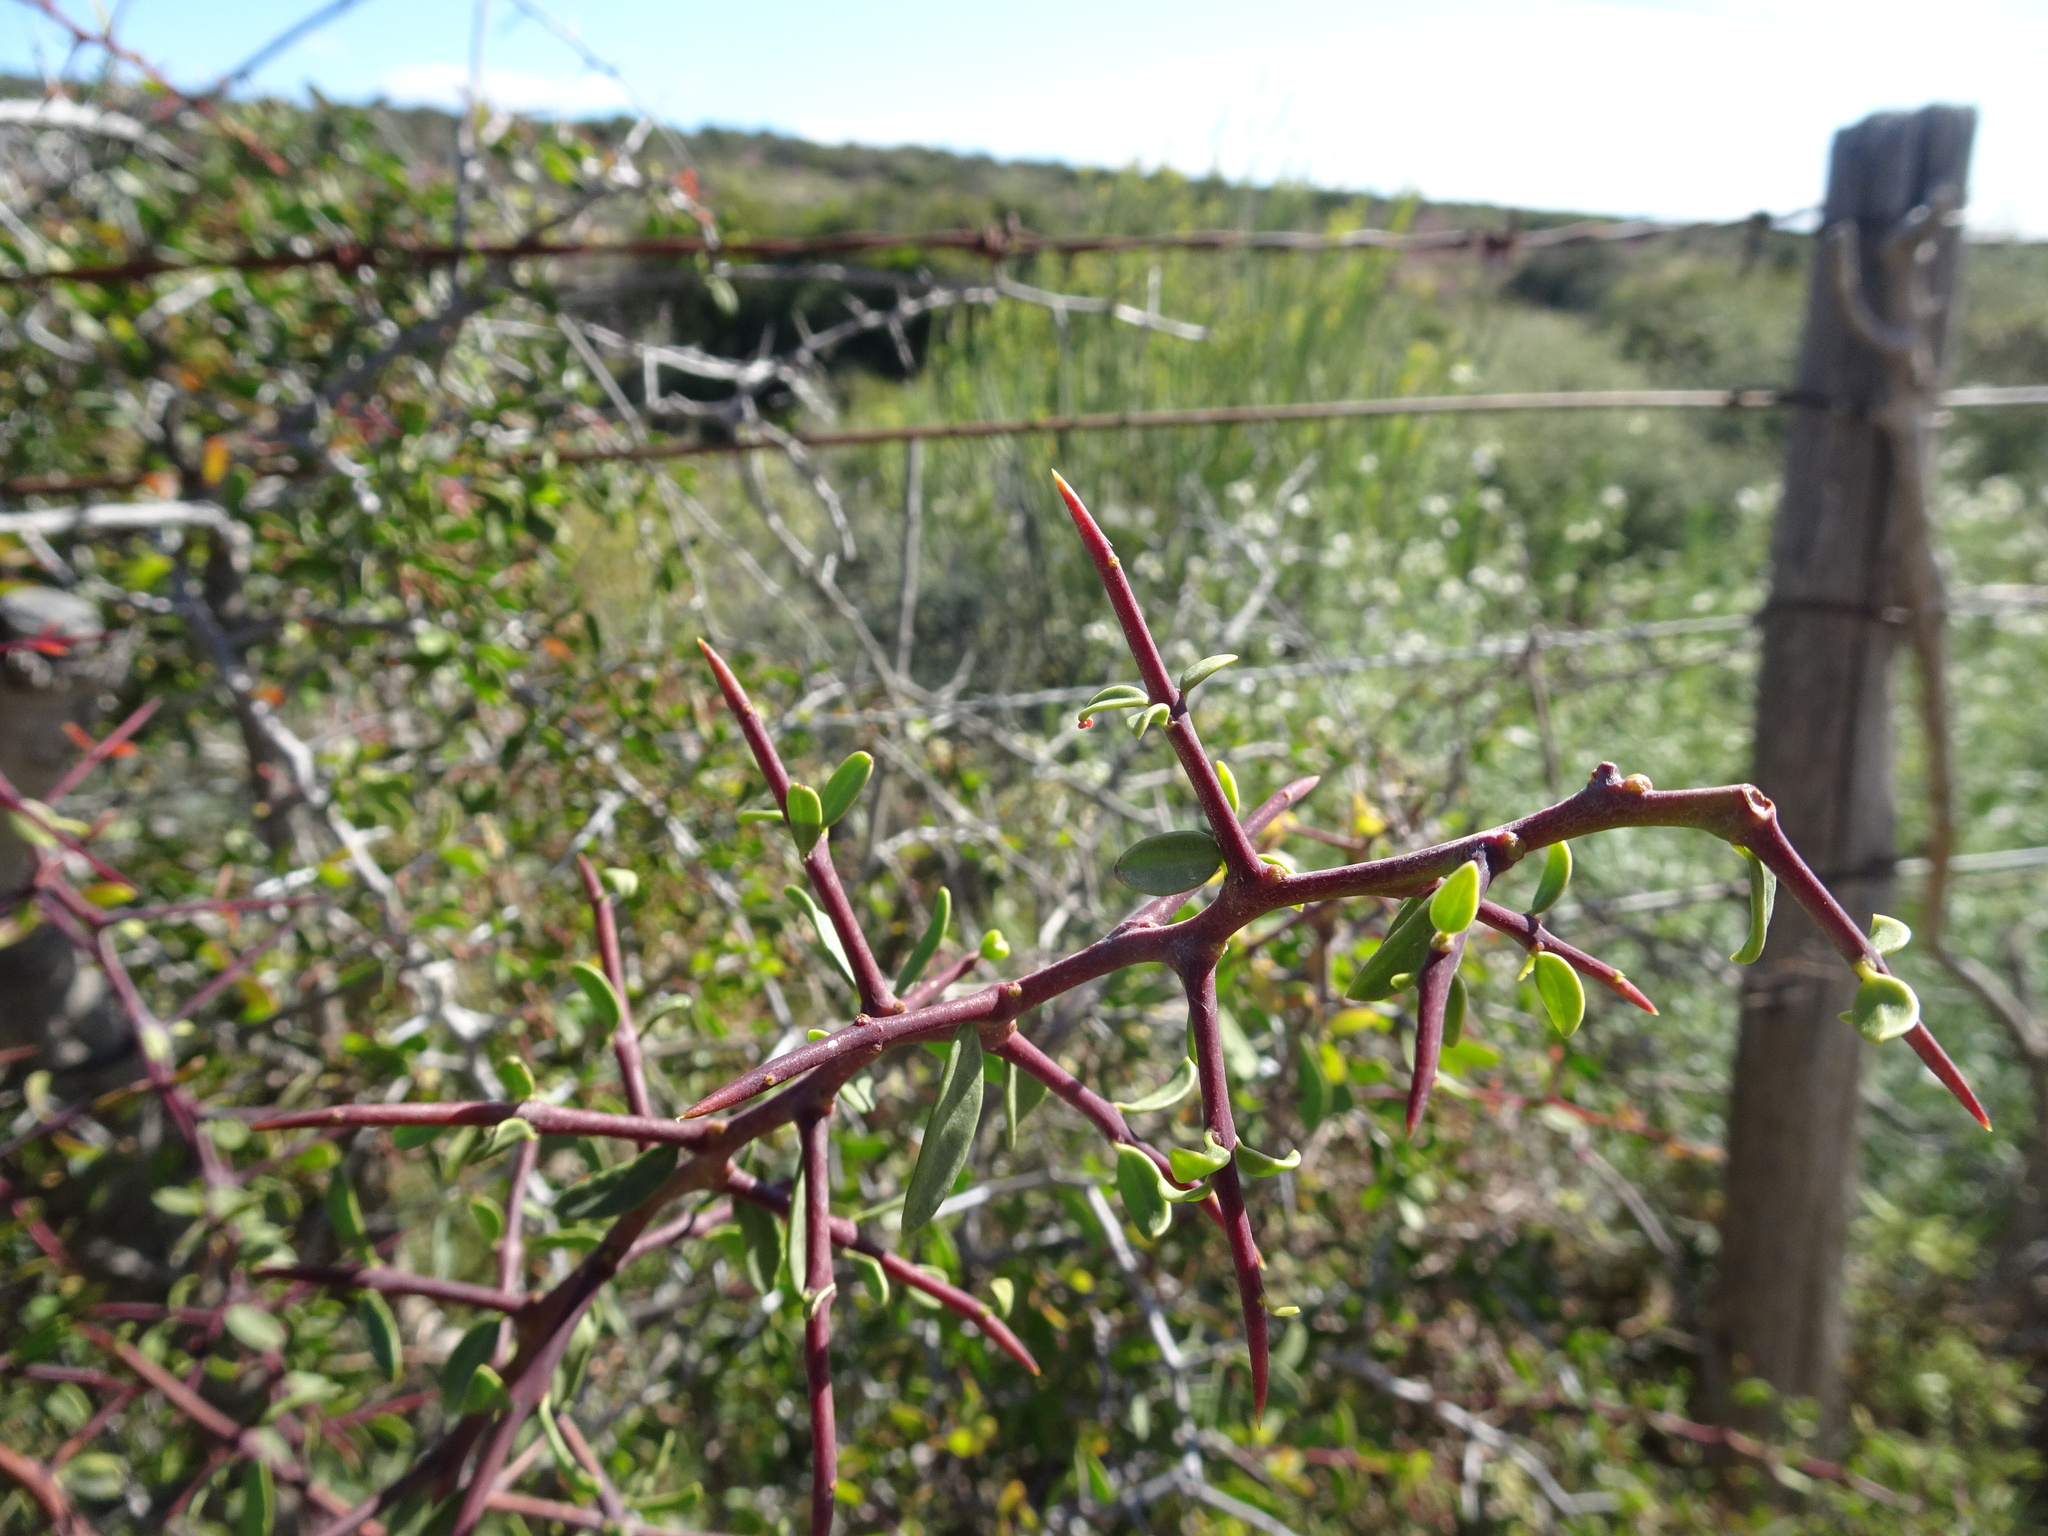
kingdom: Plantae
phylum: Tracheophyta
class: Magnoliopsida
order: Celastrales
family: Celastraceae
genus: Gloveria
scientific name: Gloveria integrifolia
